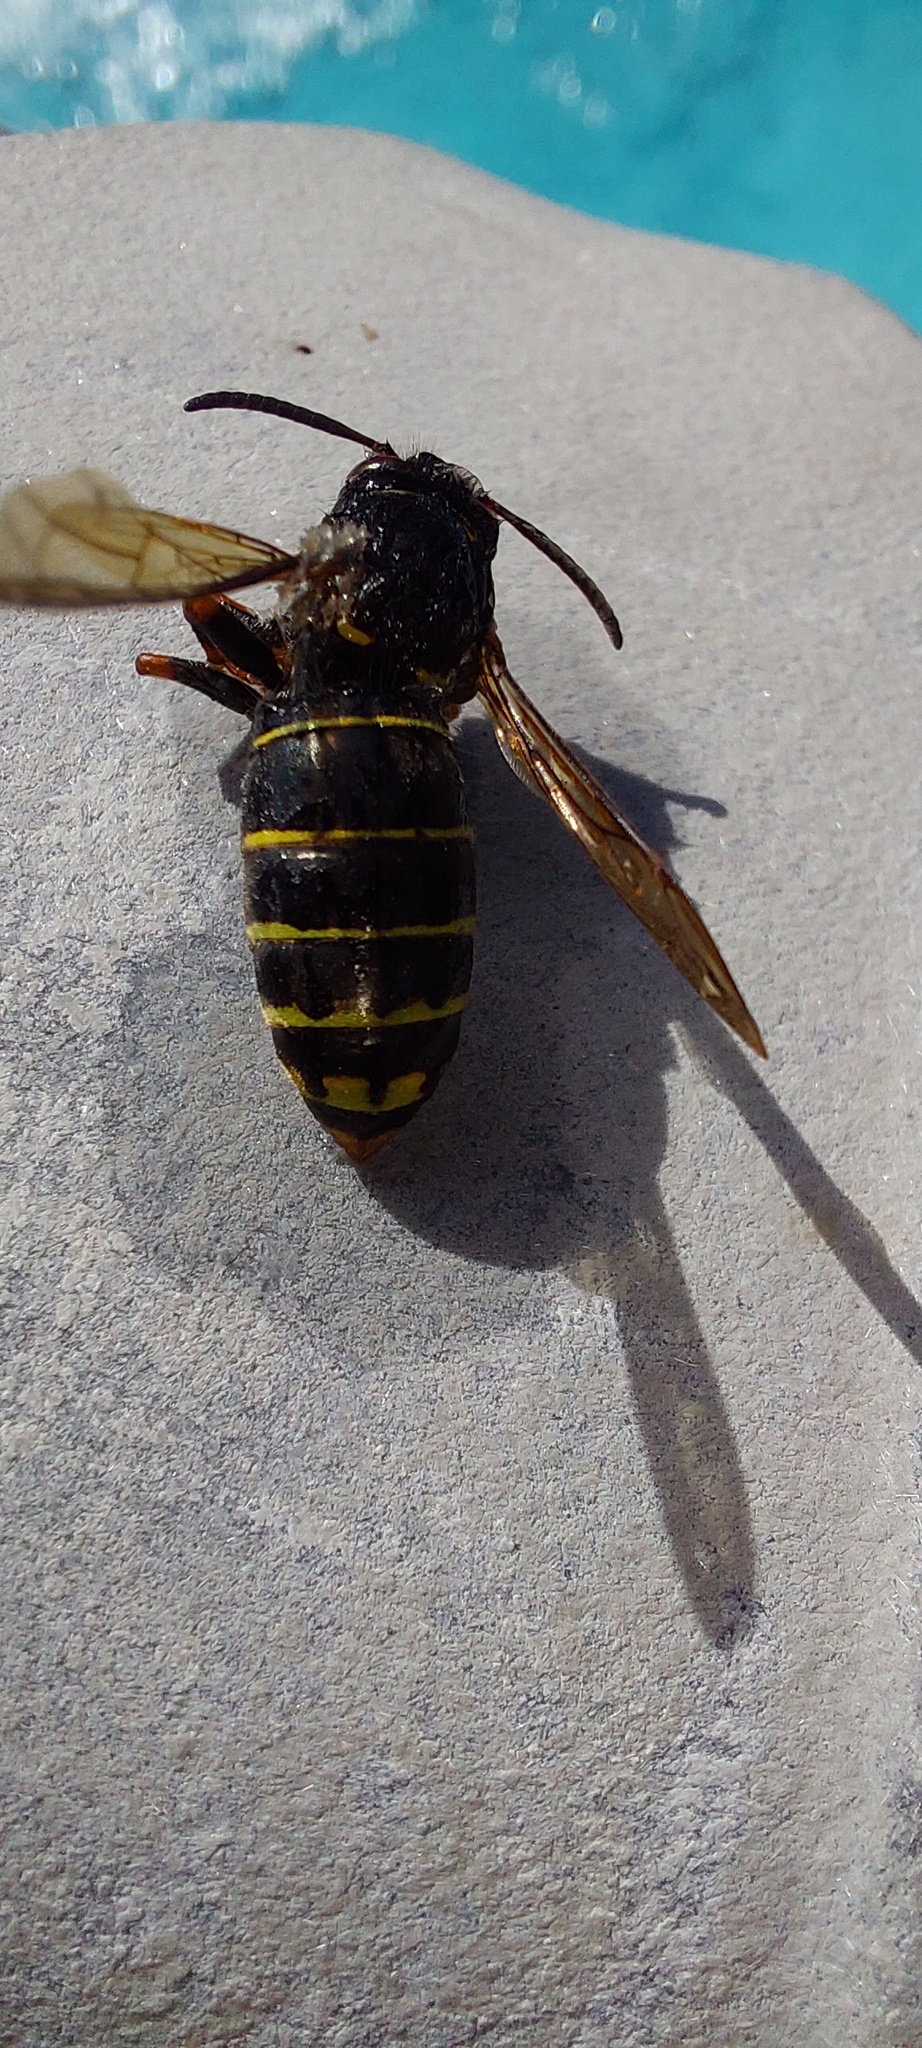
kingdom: Animalia
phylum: Arthropoda
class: Insecta
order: Hymenoptera
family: Vespidae
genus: Dolichovespula
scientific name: Dolichovespula media
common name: Median wasp
